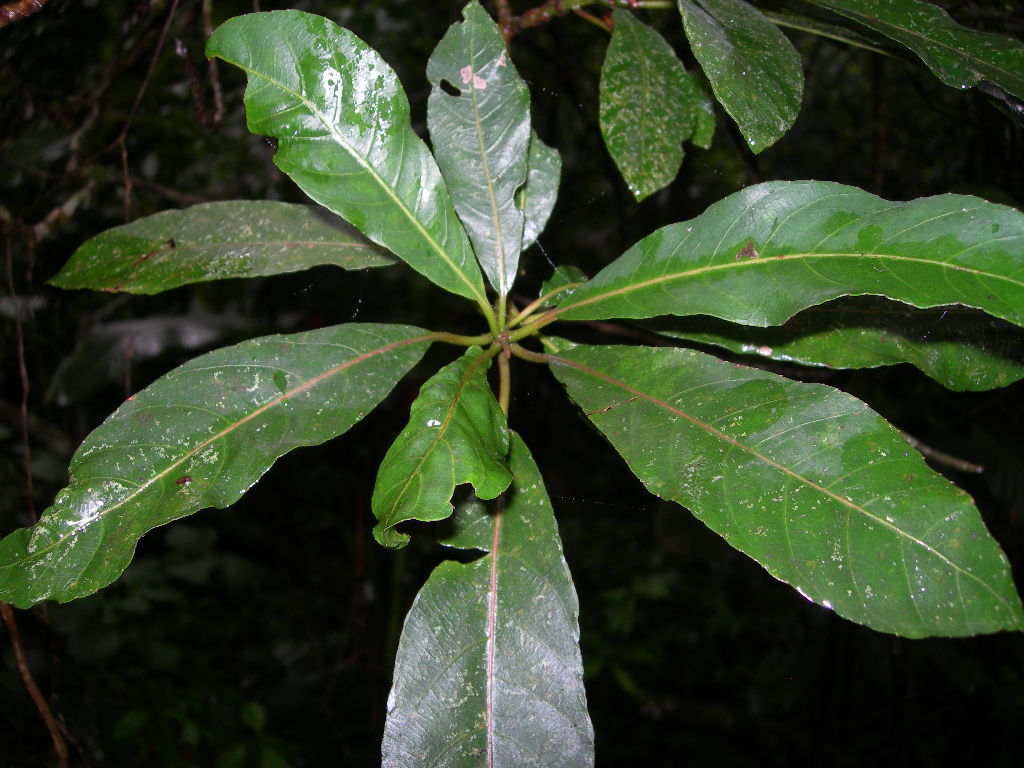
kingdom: Plantae
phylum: Tracheophyta
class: Magnoliopsida
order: Ericales
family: Actinidiaceae
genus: Saurauia
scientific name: Saurauia kegeliana
